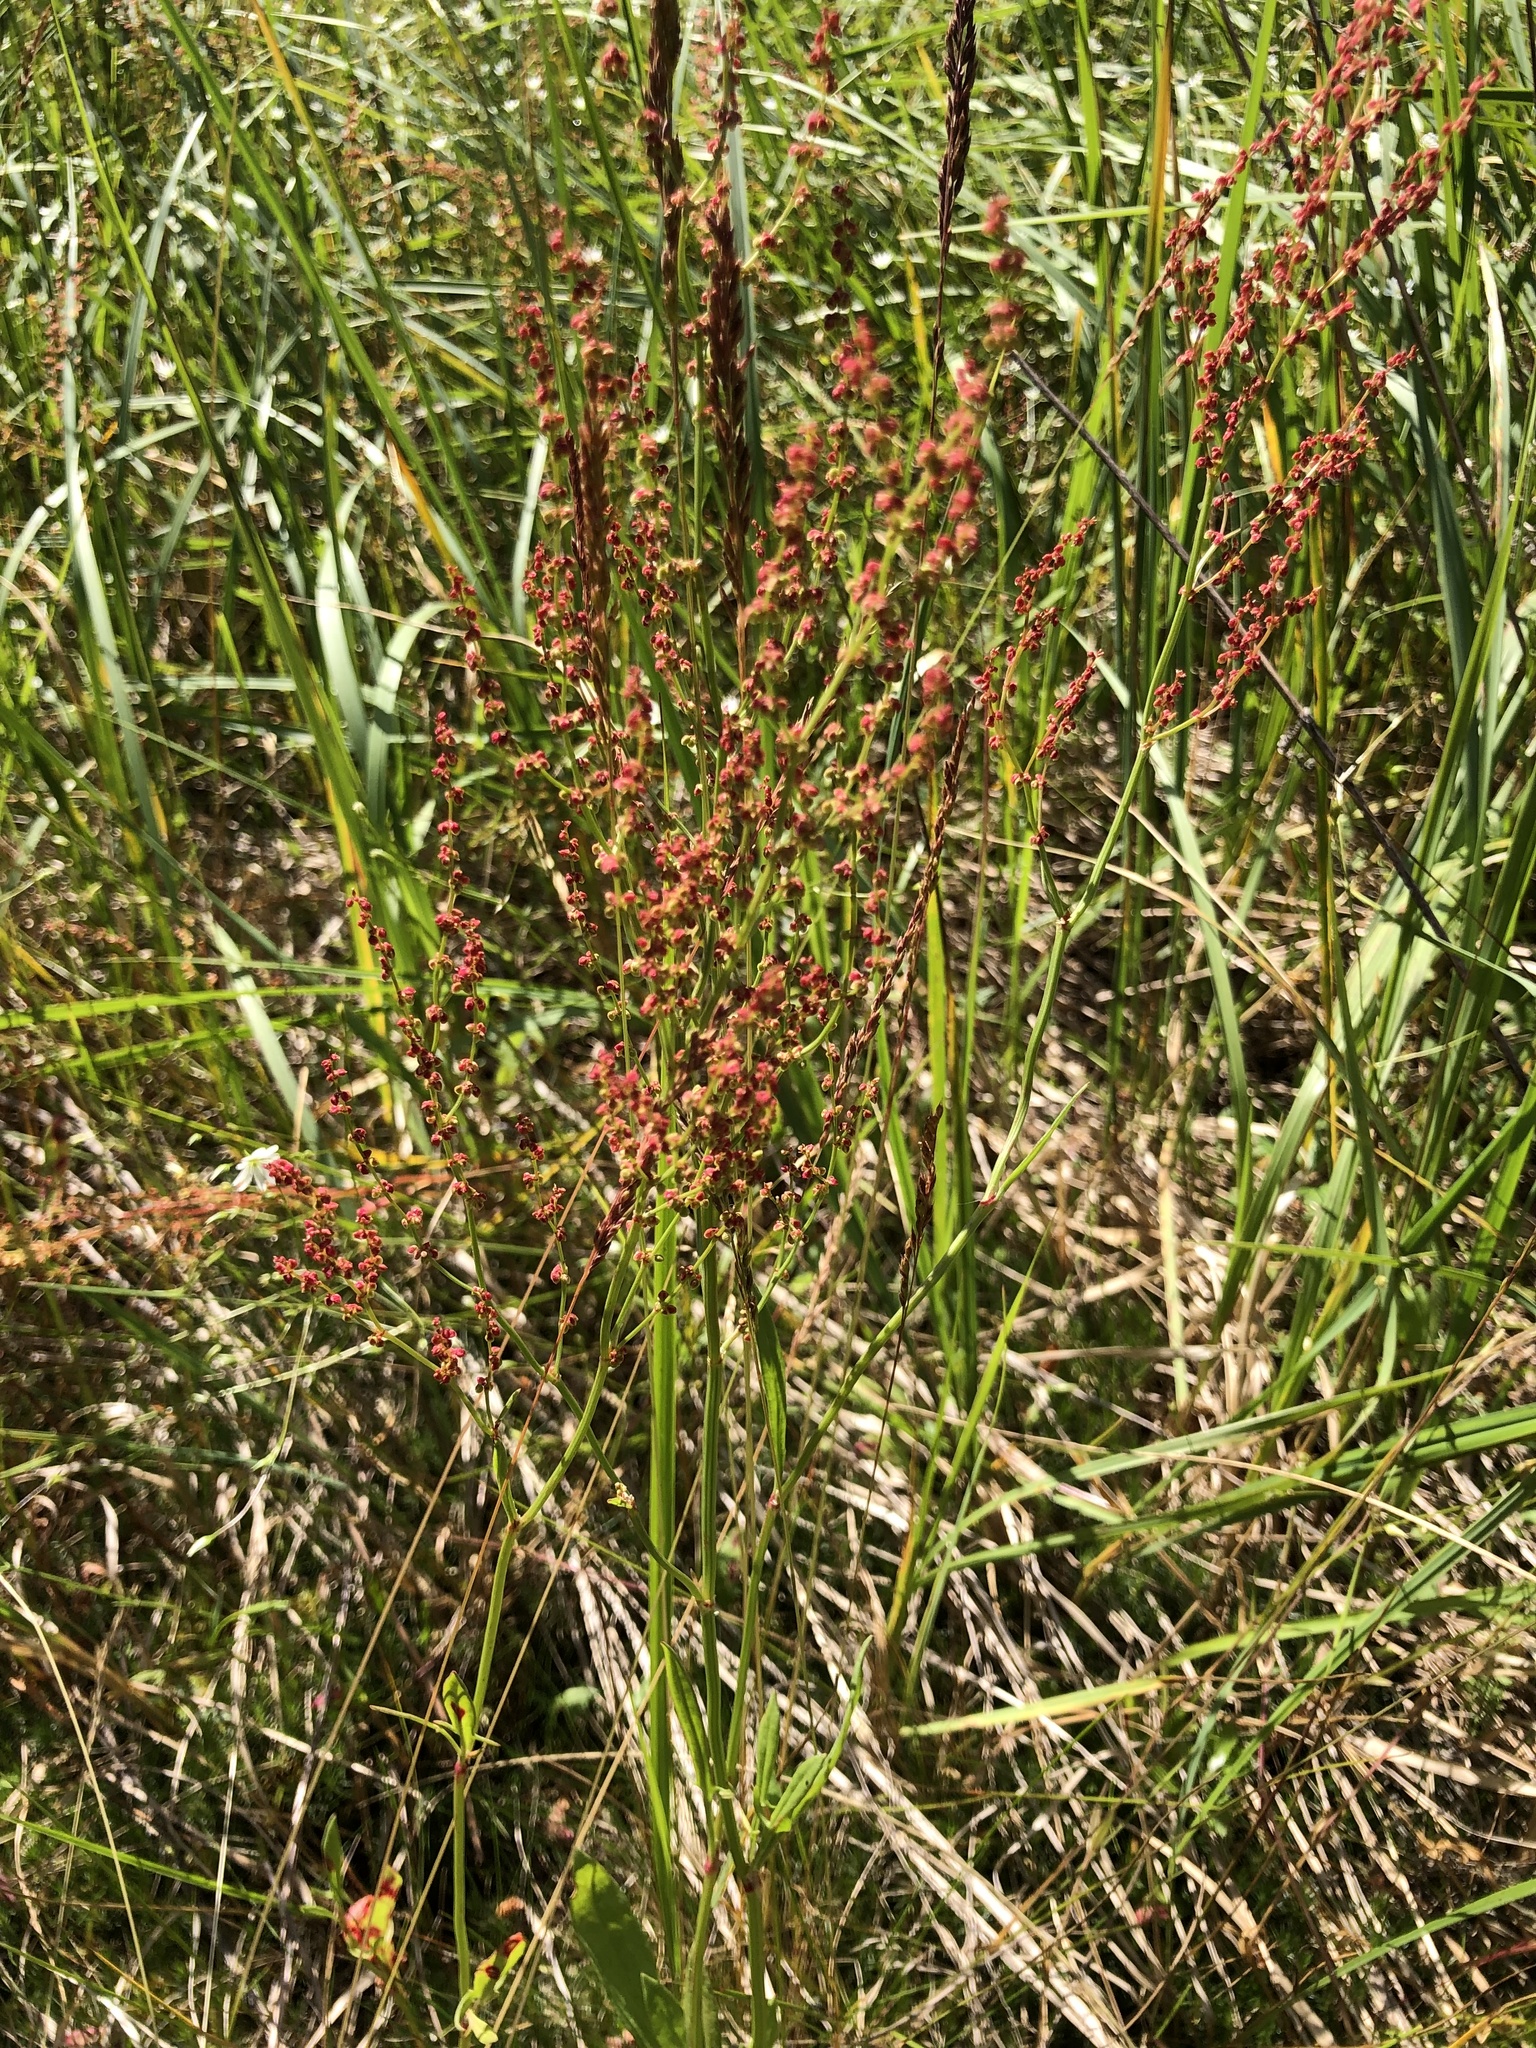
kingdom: Plantae
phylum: Tracheophyta
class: Magnoliopsida
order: Caryophyllales
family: Polygonaceae
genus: Rumex
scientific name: Rumex acetosella
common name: Common sheep sorrel
